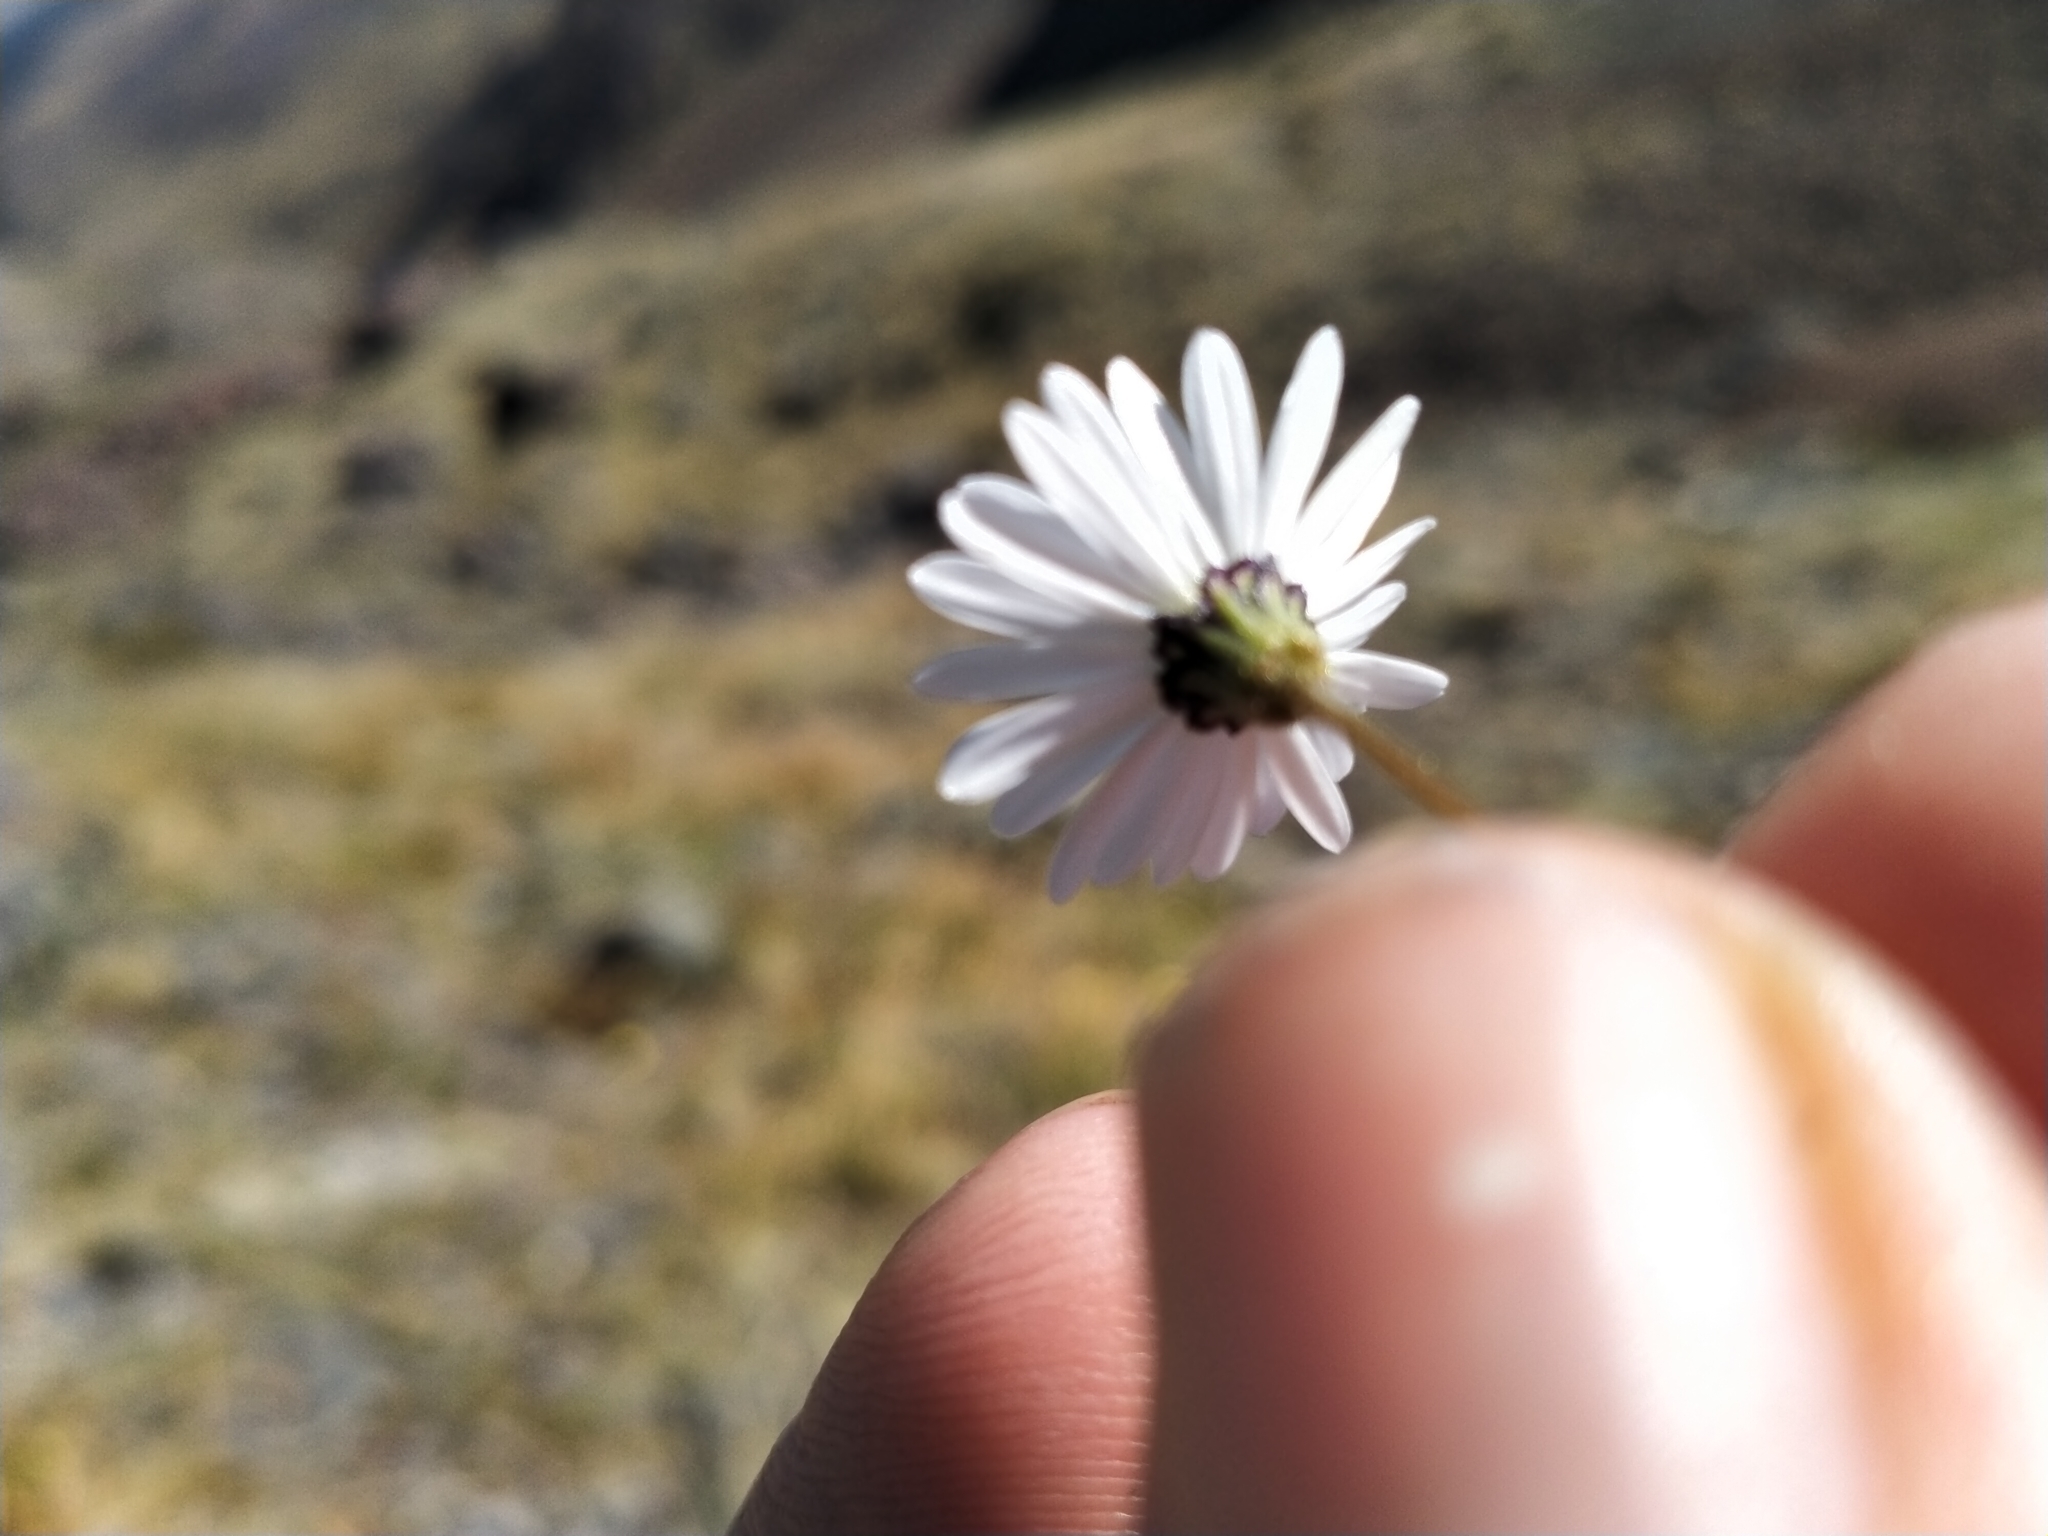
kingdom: Plantae
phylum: Tracheophyta
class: Magnoliopsida
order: Asterales
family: Asteraceae
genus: Brachyscome
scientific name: Brachyscome longiscapa
